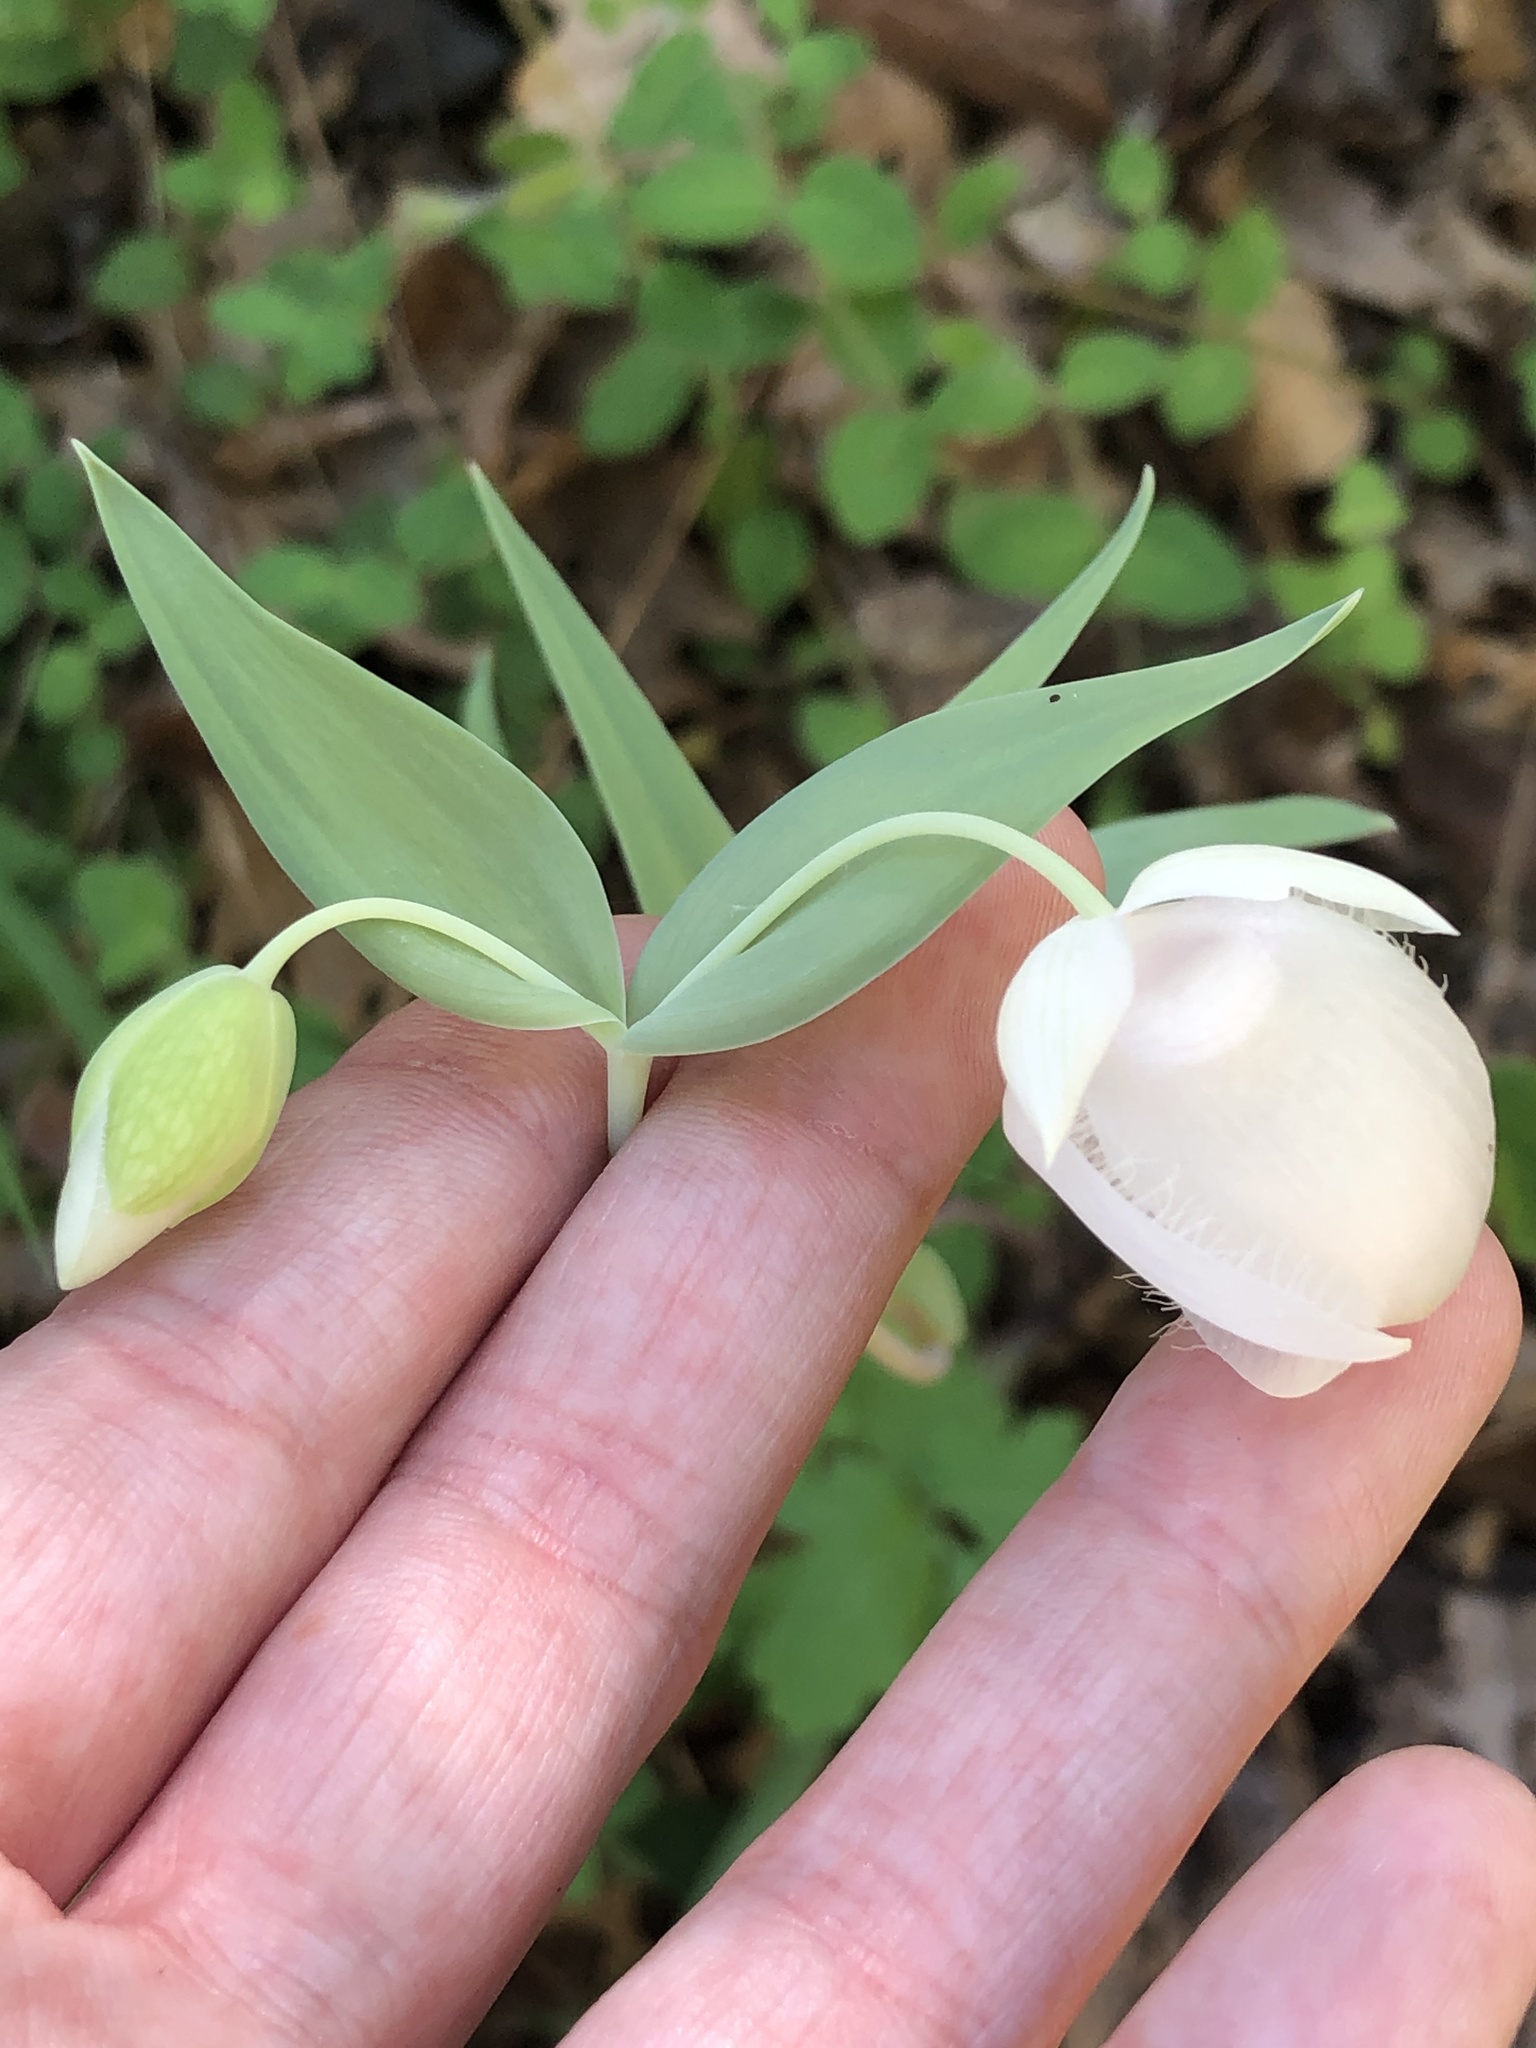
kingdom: Plantae
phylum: Tracheophyta
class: Liliopsida
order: Liliales
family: Liliaceae
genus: Calochortus
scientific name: Calochortus albus
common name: Fairy-lantern
